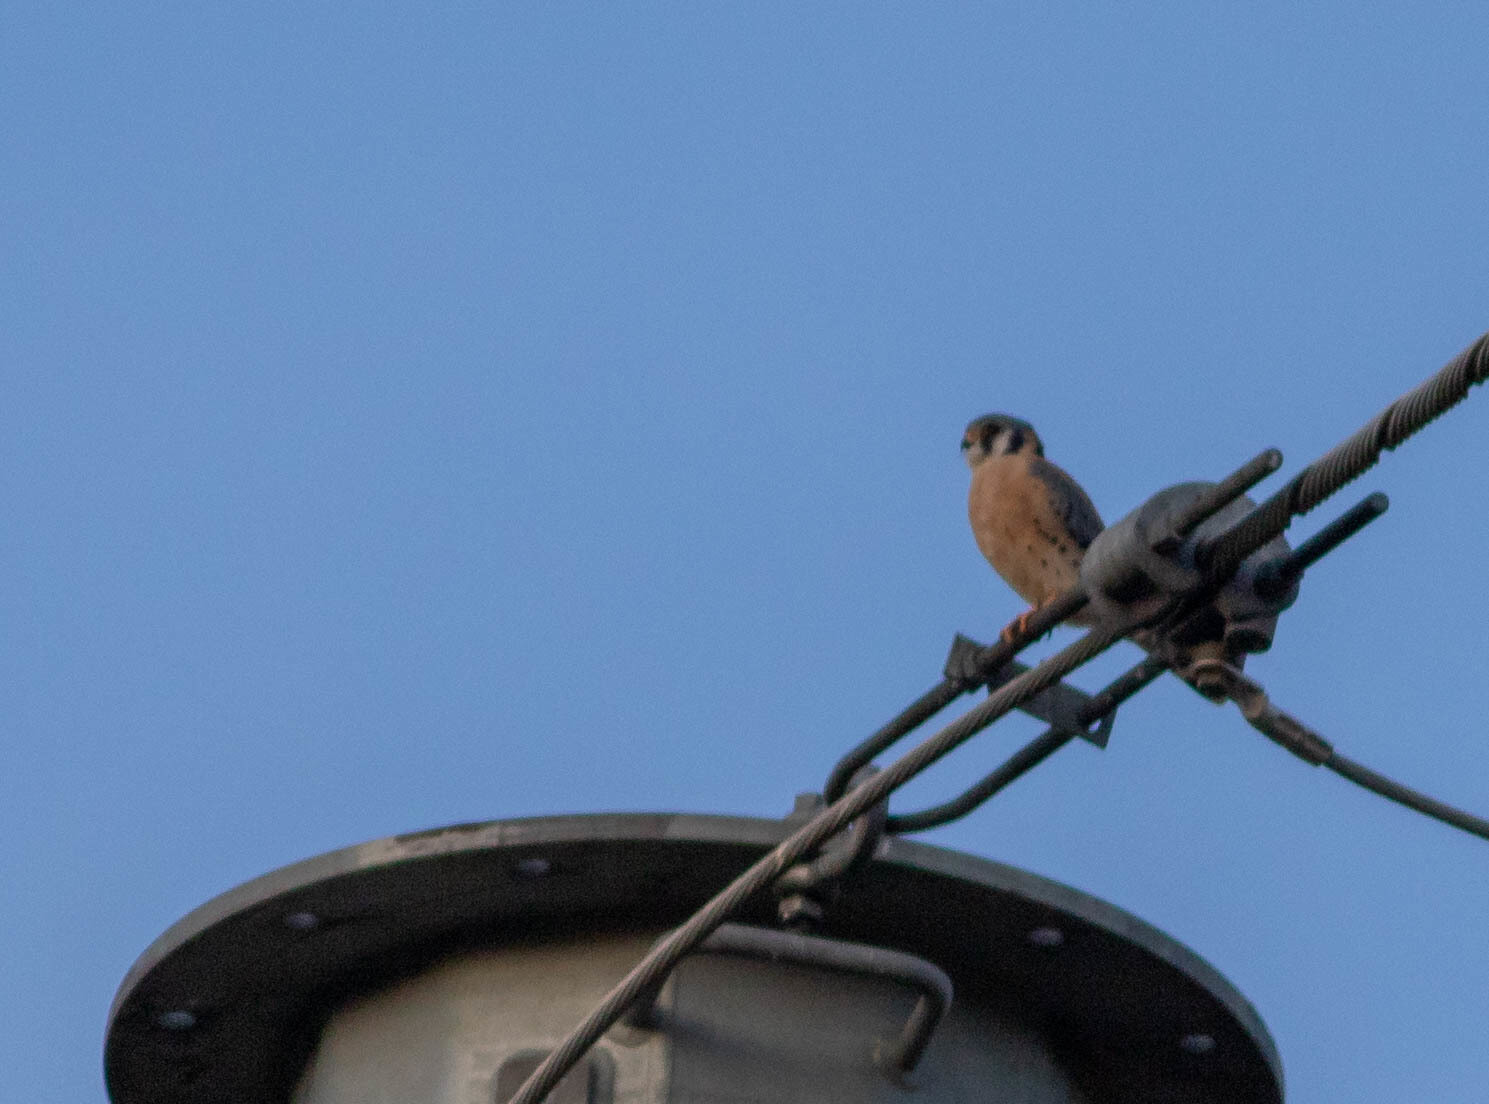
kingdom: Animalia
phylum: Chordata
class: Aves
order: Falconiformes
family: Falconidae
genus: Falco
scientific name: Falco sparverius
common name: American kestrel
